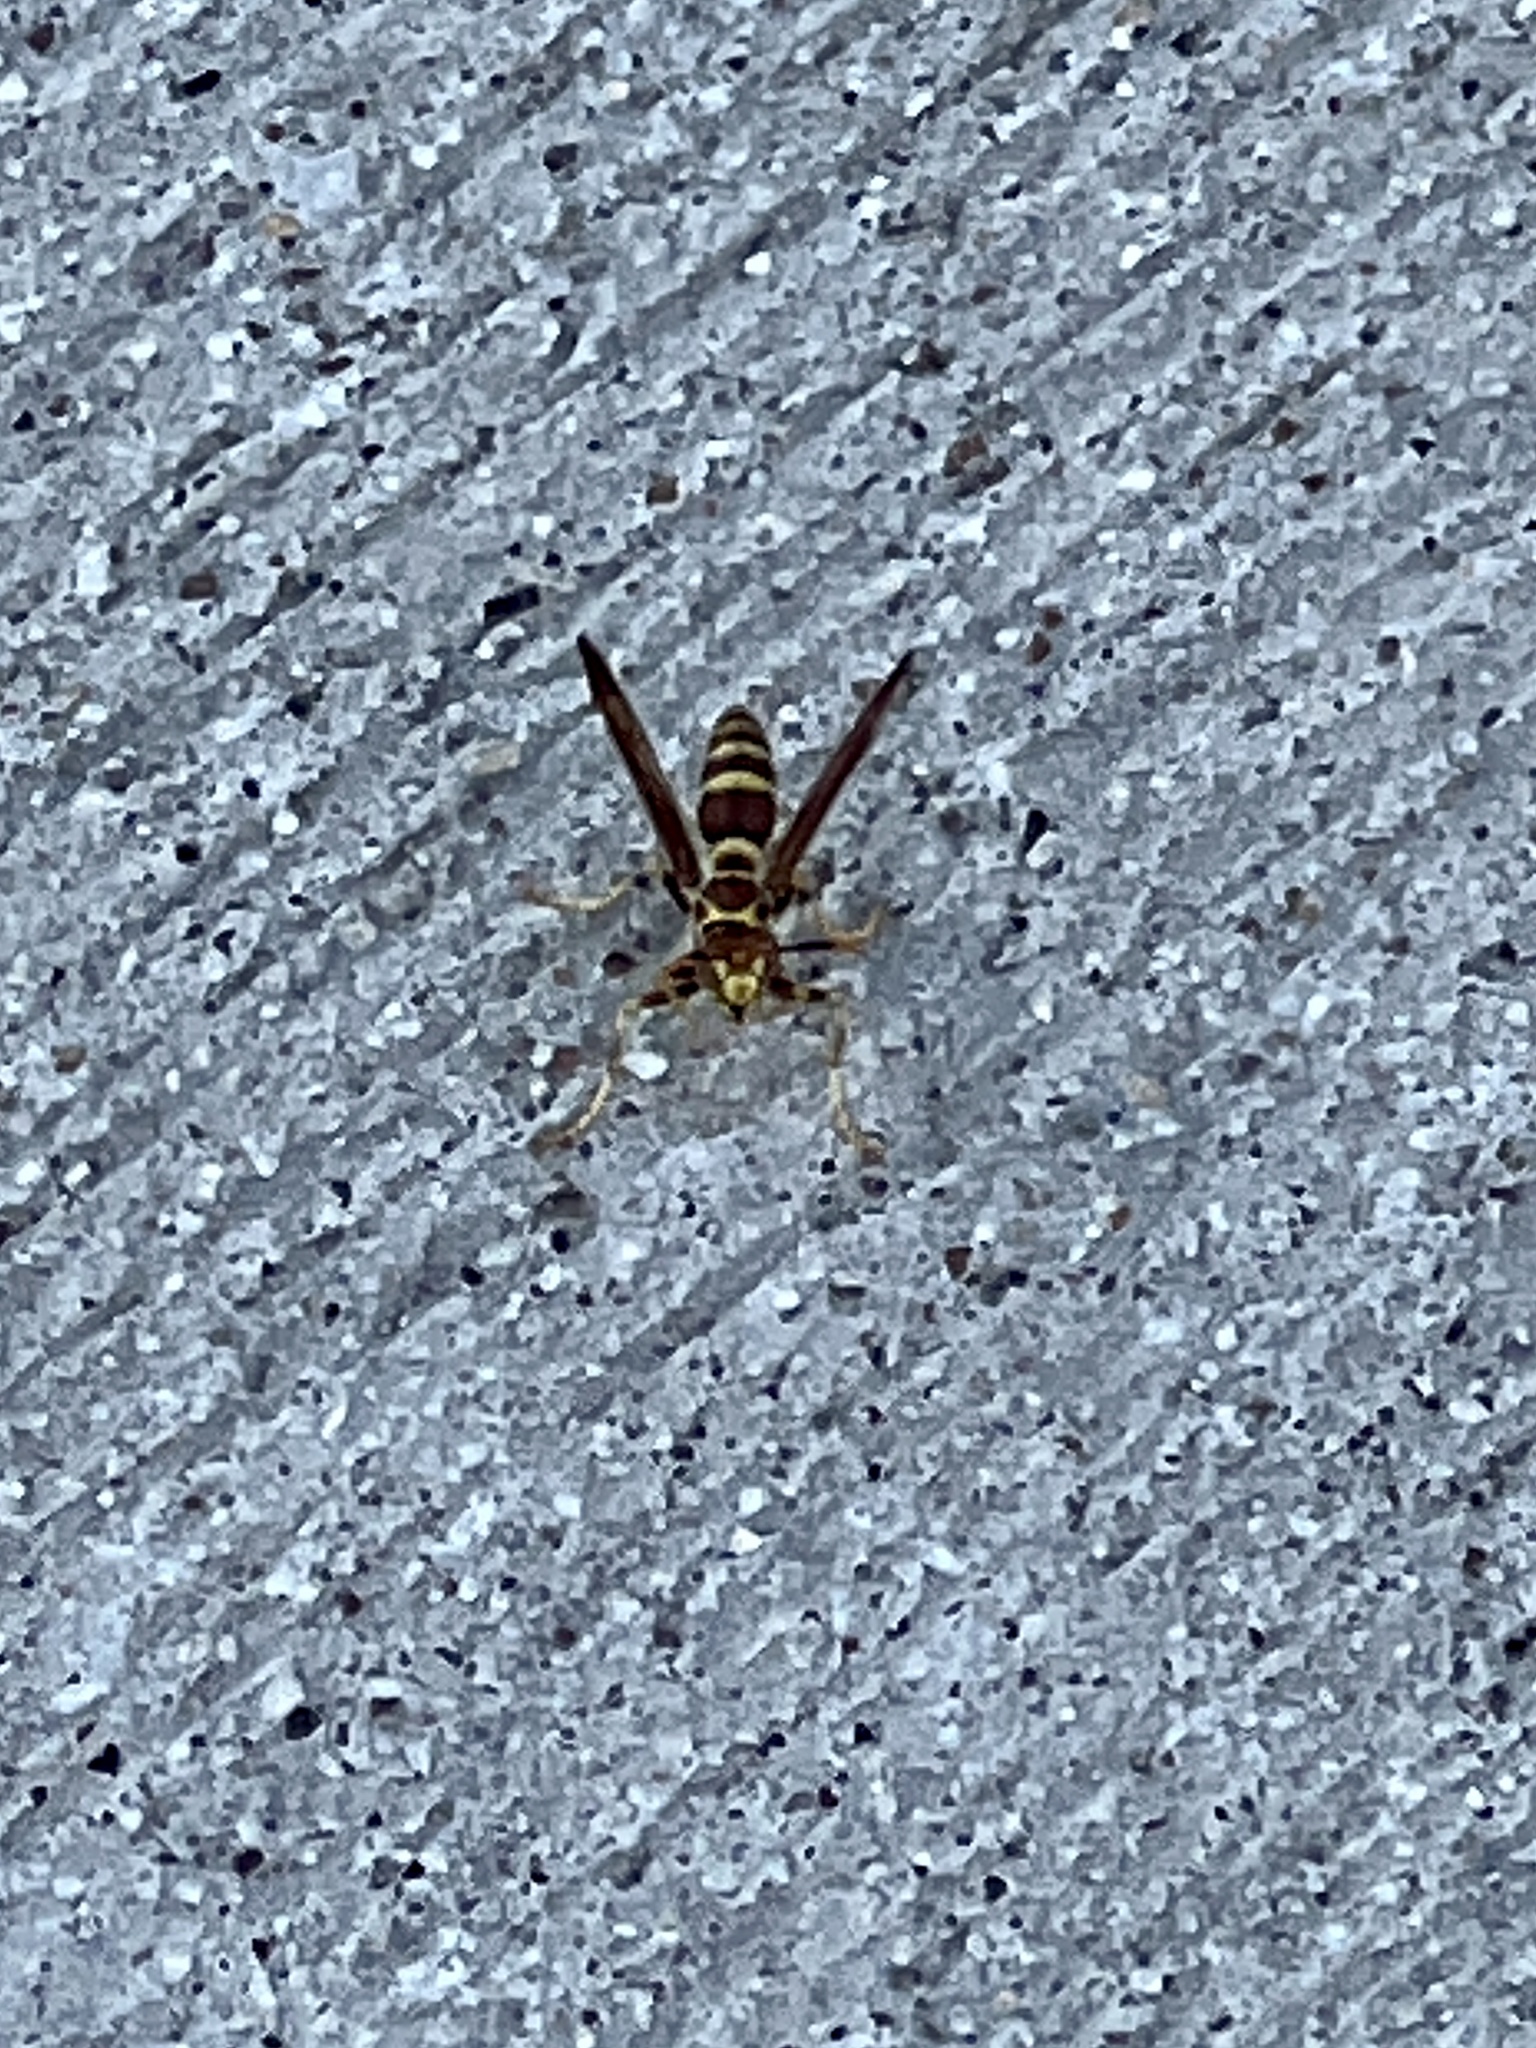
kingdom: Animalia
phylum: Arthropoda
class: Insecta
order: Hymenoptera
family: Eumenidae
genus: Polistes
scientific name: Polistes exclamans
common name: Paper wasp
